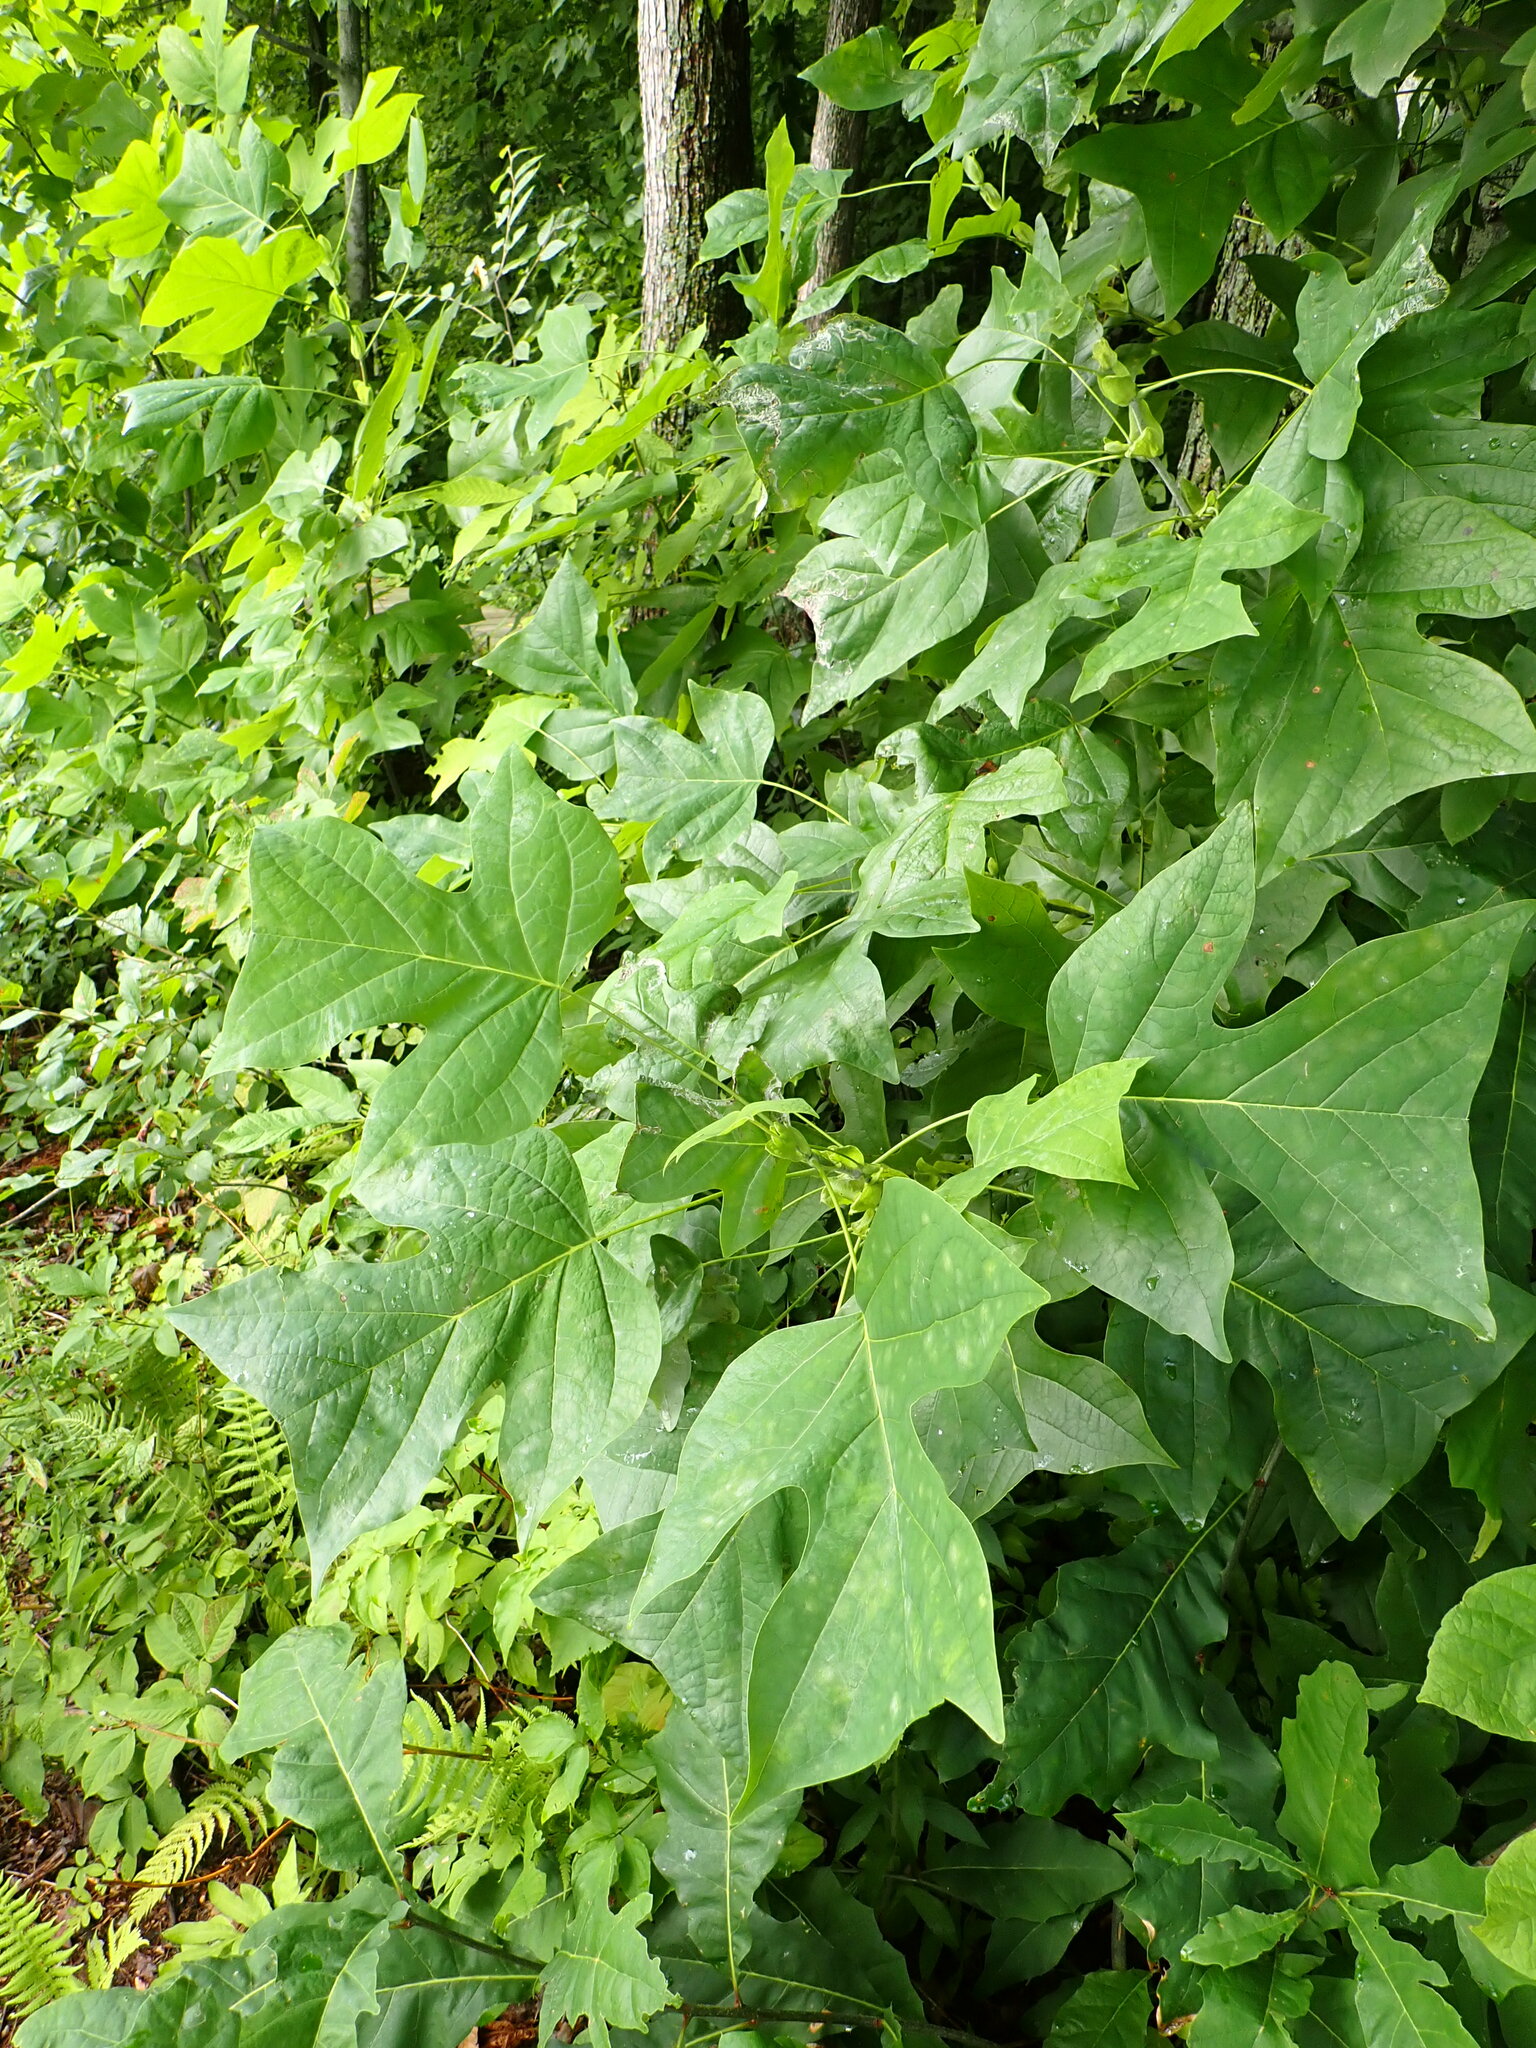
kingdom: Plantae
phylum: Tracheophyta
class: Magnoliopsida
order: Magnoliales
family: Magnoliaceae
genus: Liriodendron
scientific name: Liriodendron tulipifera
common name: Tulip tree
